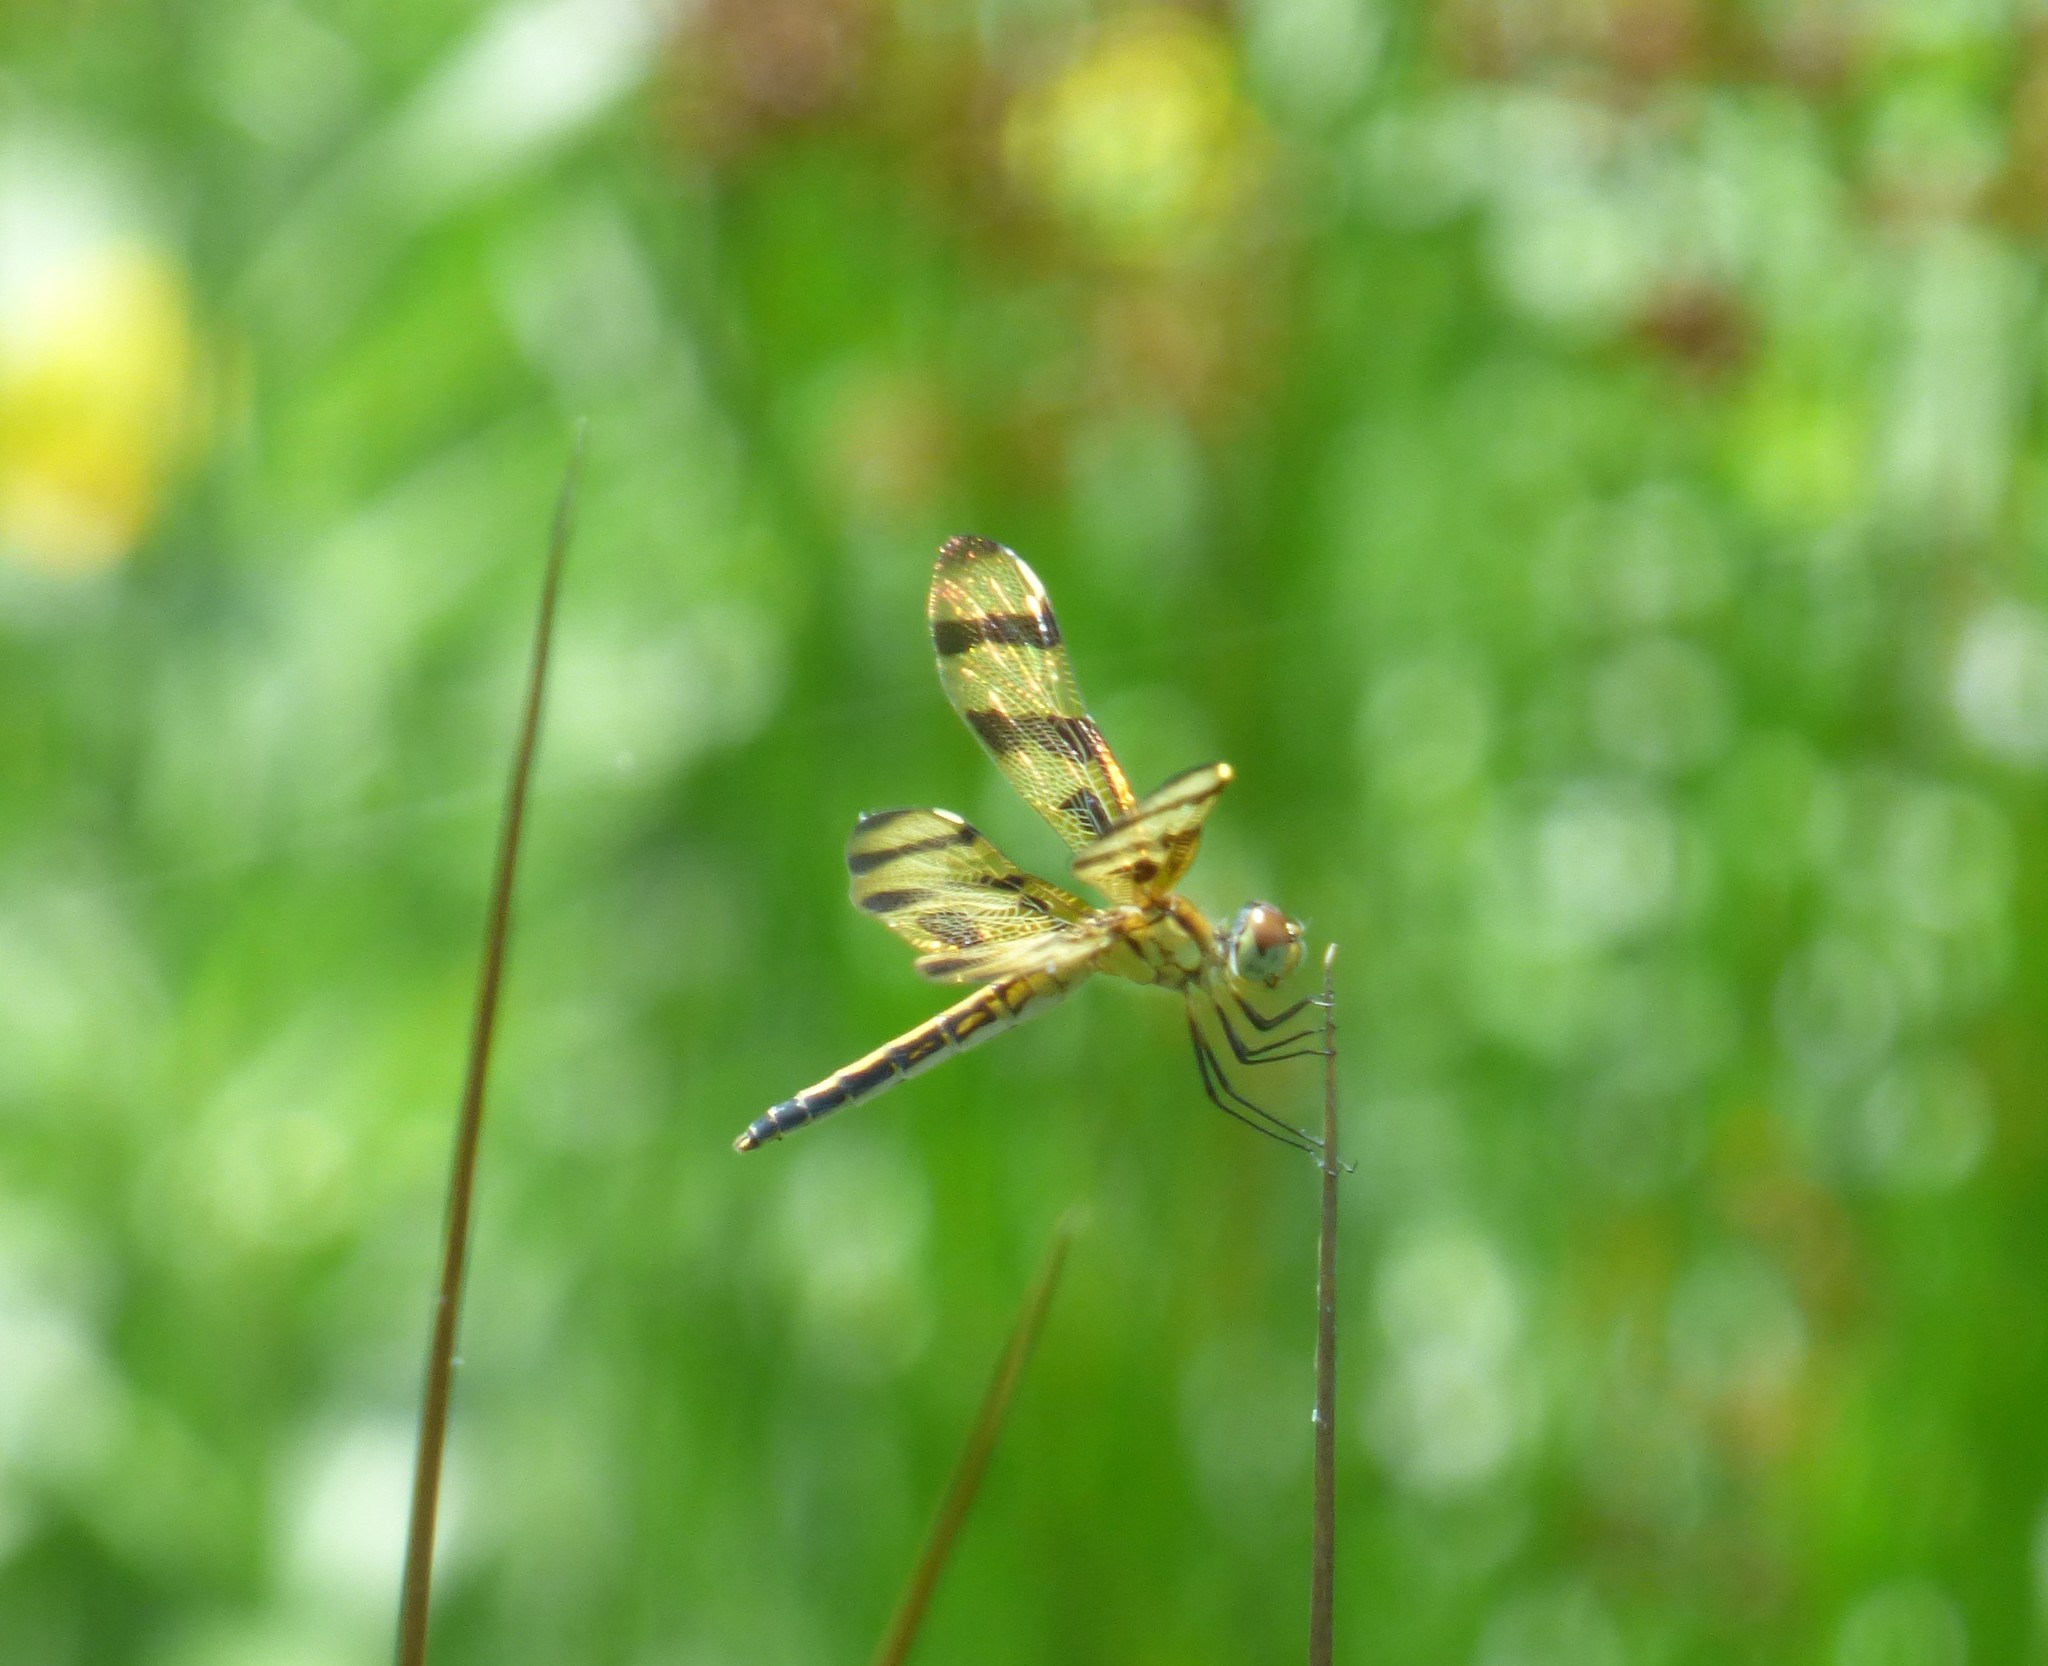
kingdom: Animalia
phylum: Arthropoda
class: Insecta
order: Odonata
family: Libellulidae
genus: Celithemis
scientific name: Celithemis eponina
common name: Halloween pennant
